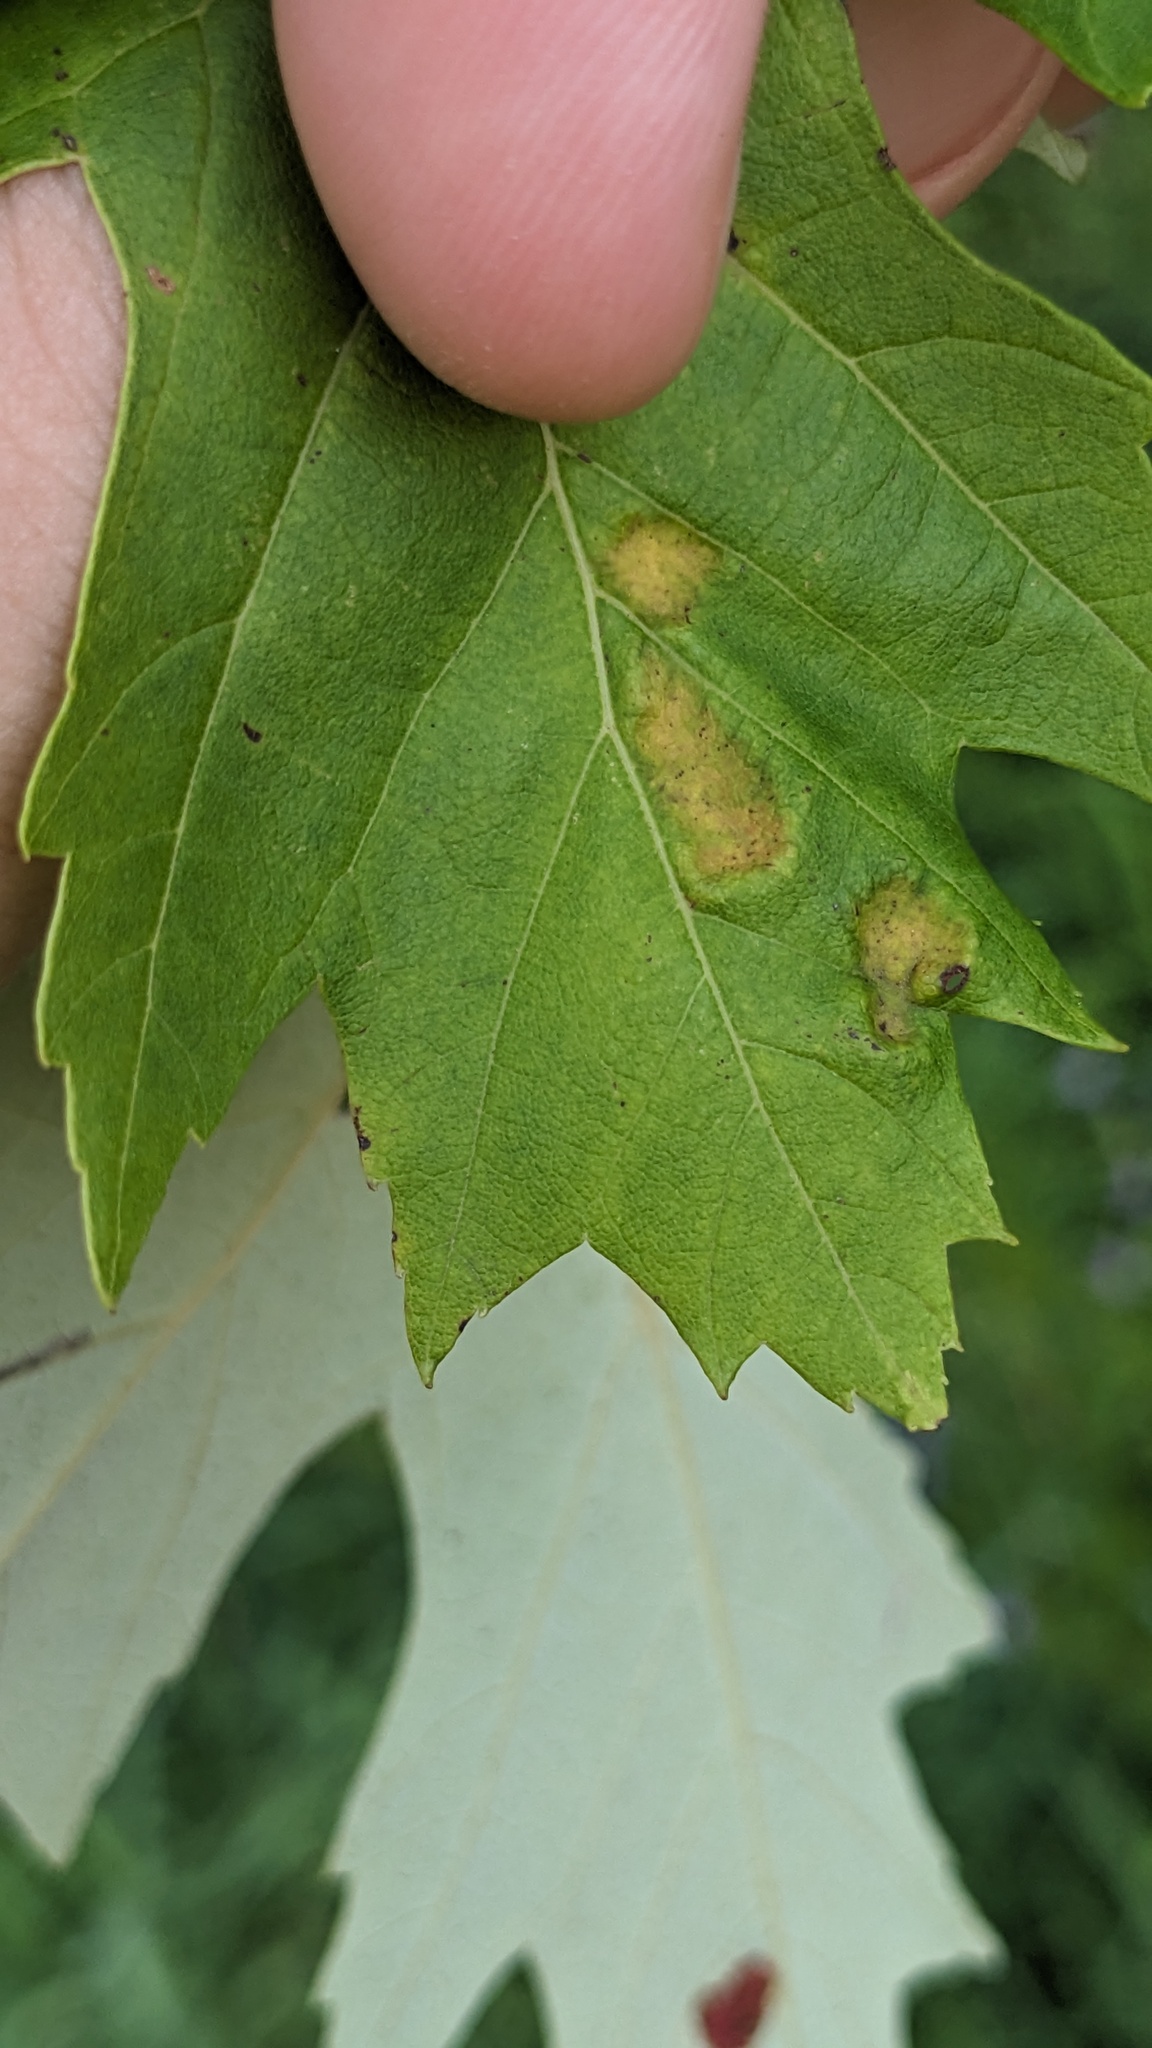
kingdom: Animalia
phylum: Arthropoda
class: Arachnida
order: Trombidiformes
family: Eriophyidae
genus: Eriophyes
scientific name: Eriophyes
